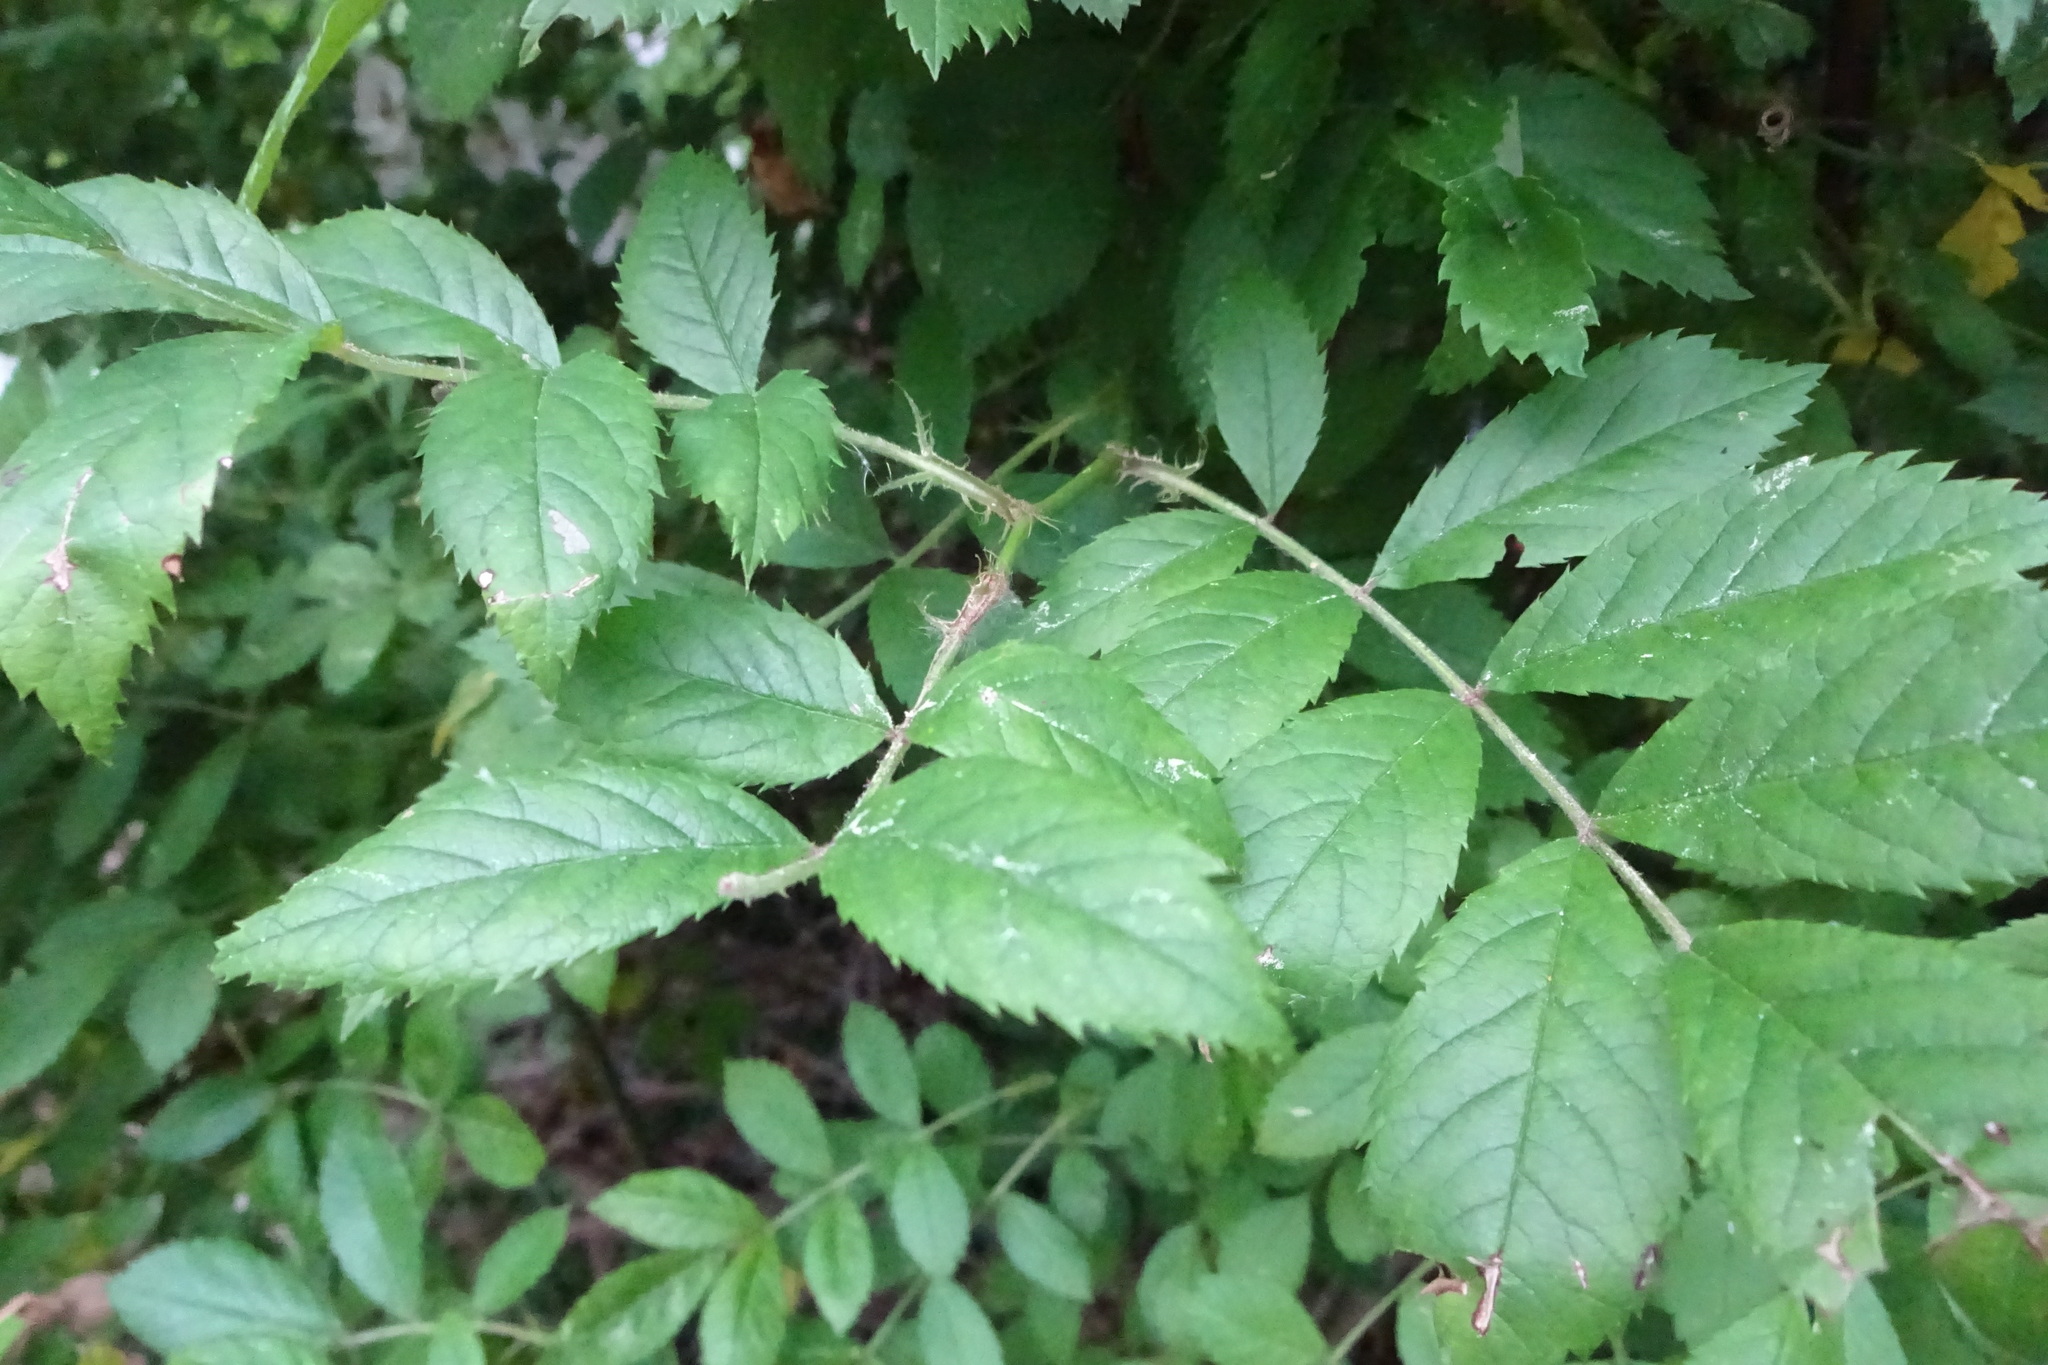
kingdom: Plantae
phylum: Tracheophyta
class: Magnoliopsida
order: Rosales
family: Rosaceae
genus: Rosa
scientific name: Rosa multiflora
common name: Multiflora rose
